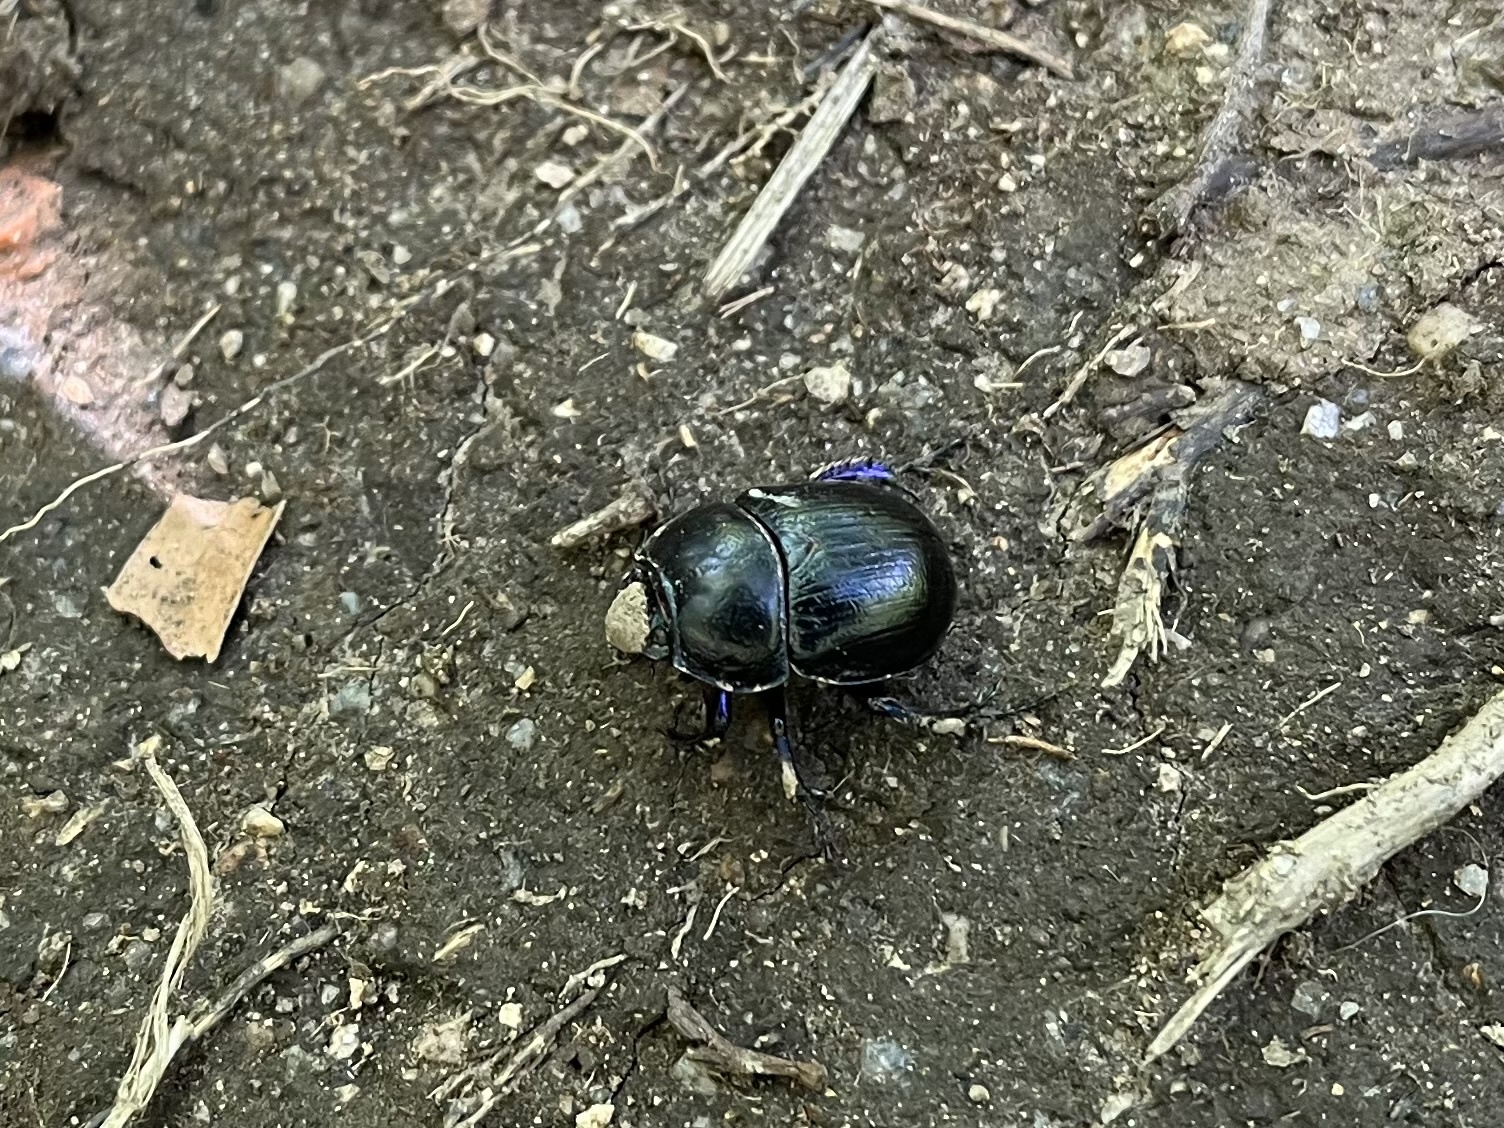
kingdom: Animalia
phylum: Arthropoda
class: Insecta
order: Coleoptera
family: Geotrupidae
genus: Anoplotrupes
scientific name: Anoplotrupes stercorosus
